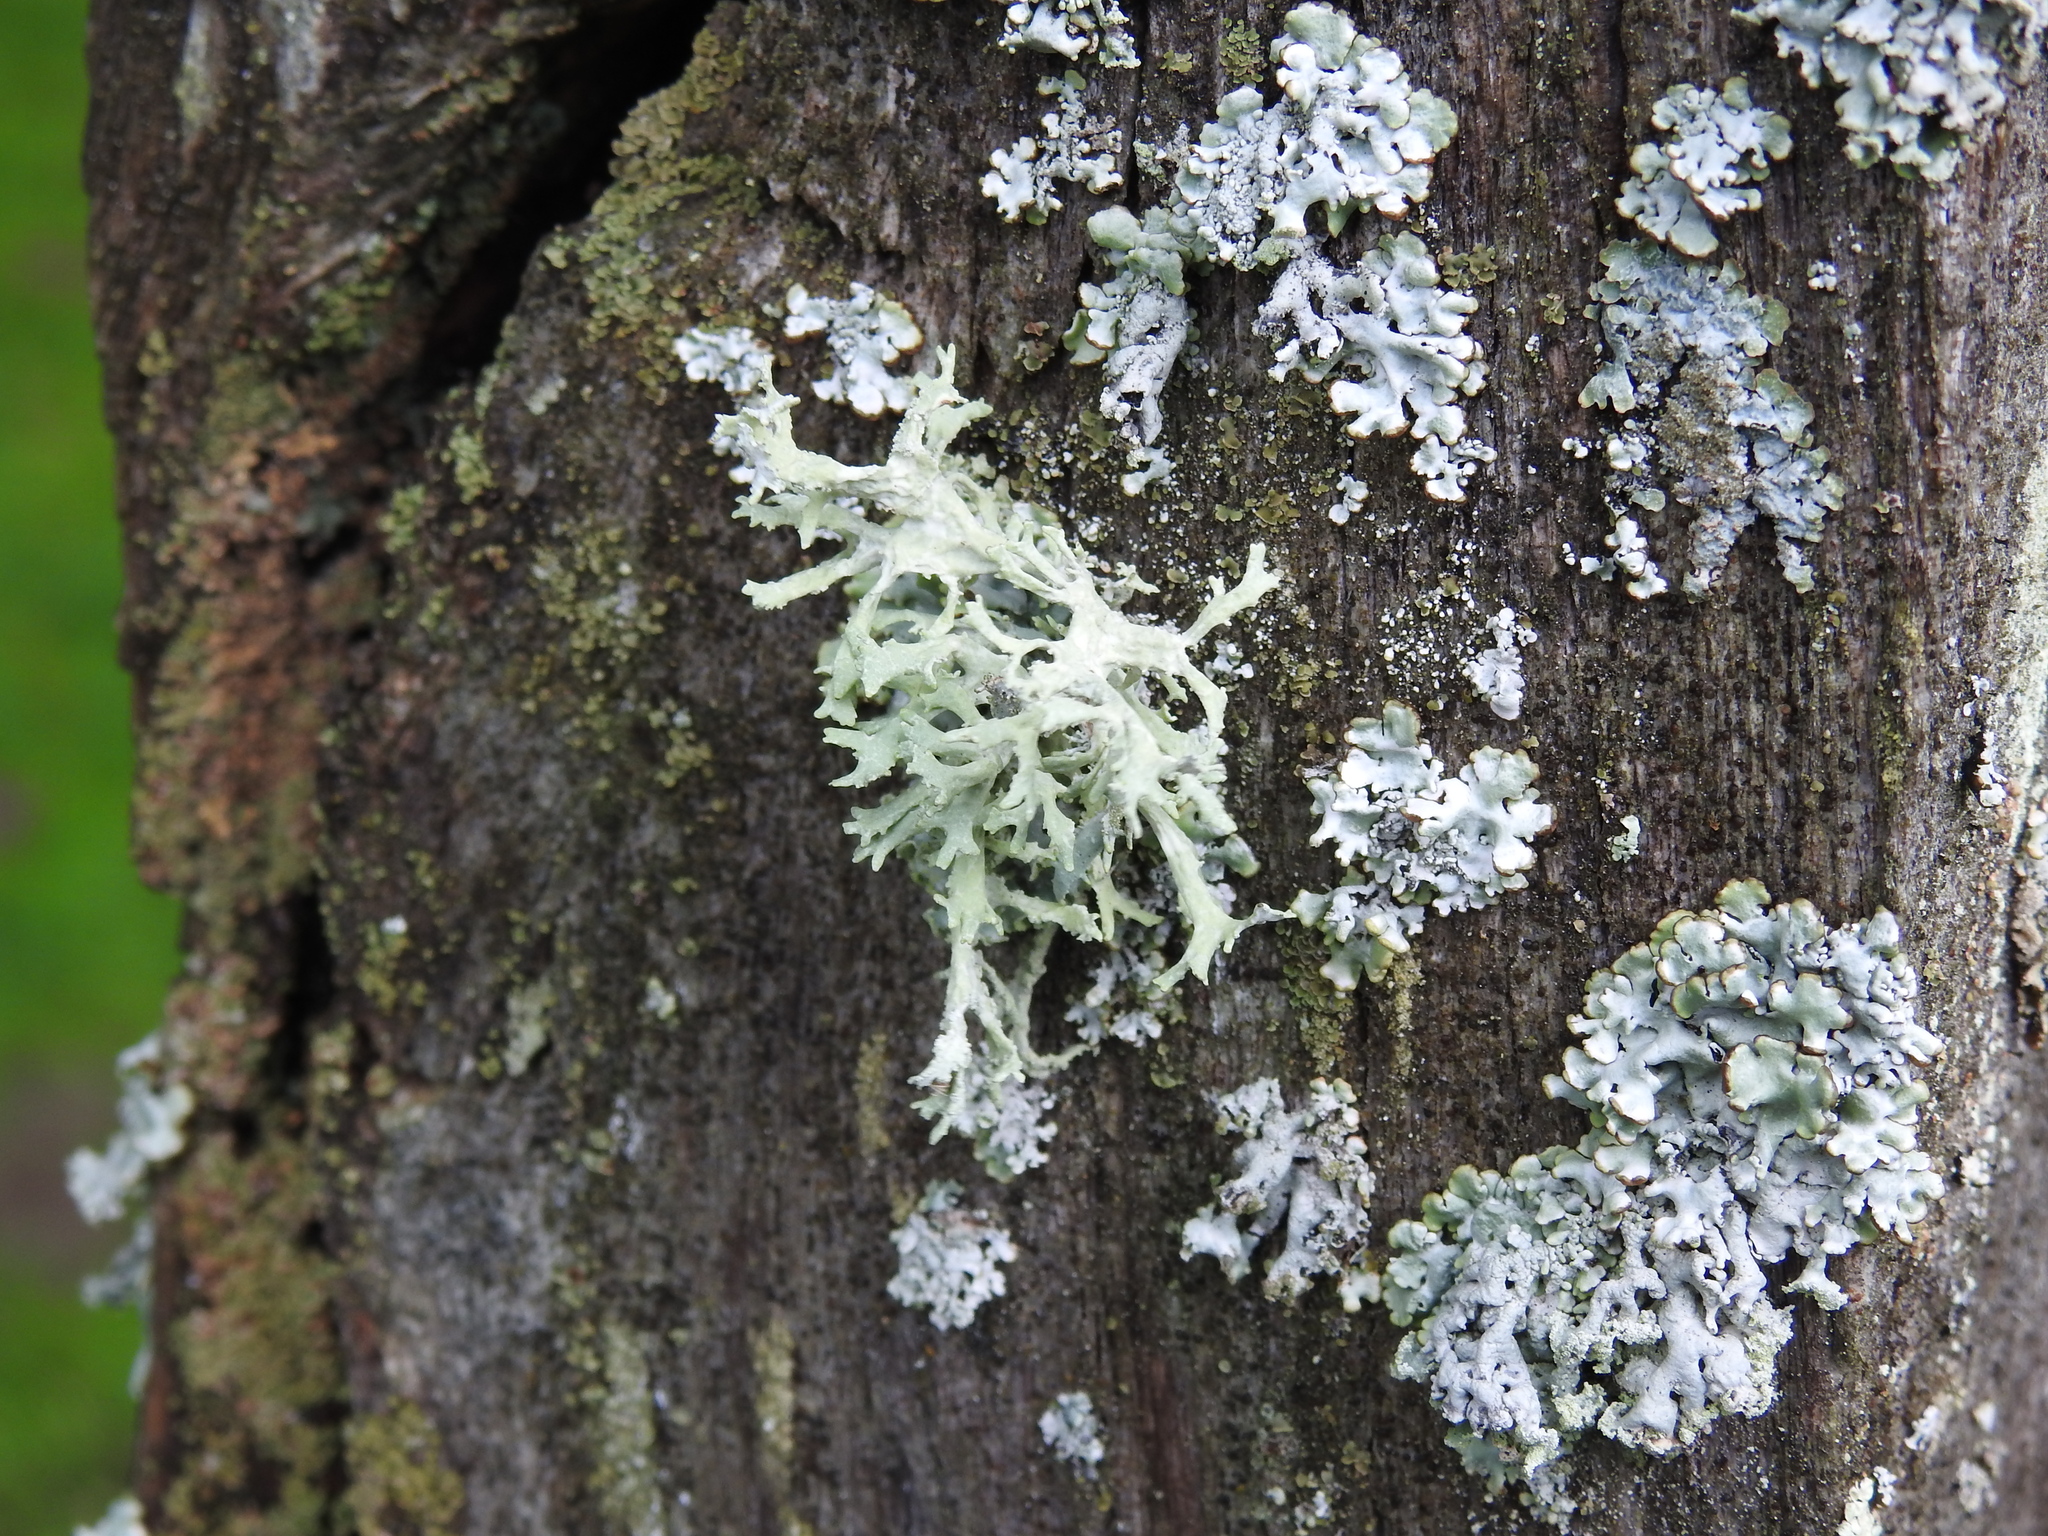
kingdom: Fungi
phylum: Ascomycota
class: Lecanoromycetes
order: Lecanorales
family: Parmeliaceae
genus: Evernia
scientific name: Evernia prunastri
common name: Oak moss
